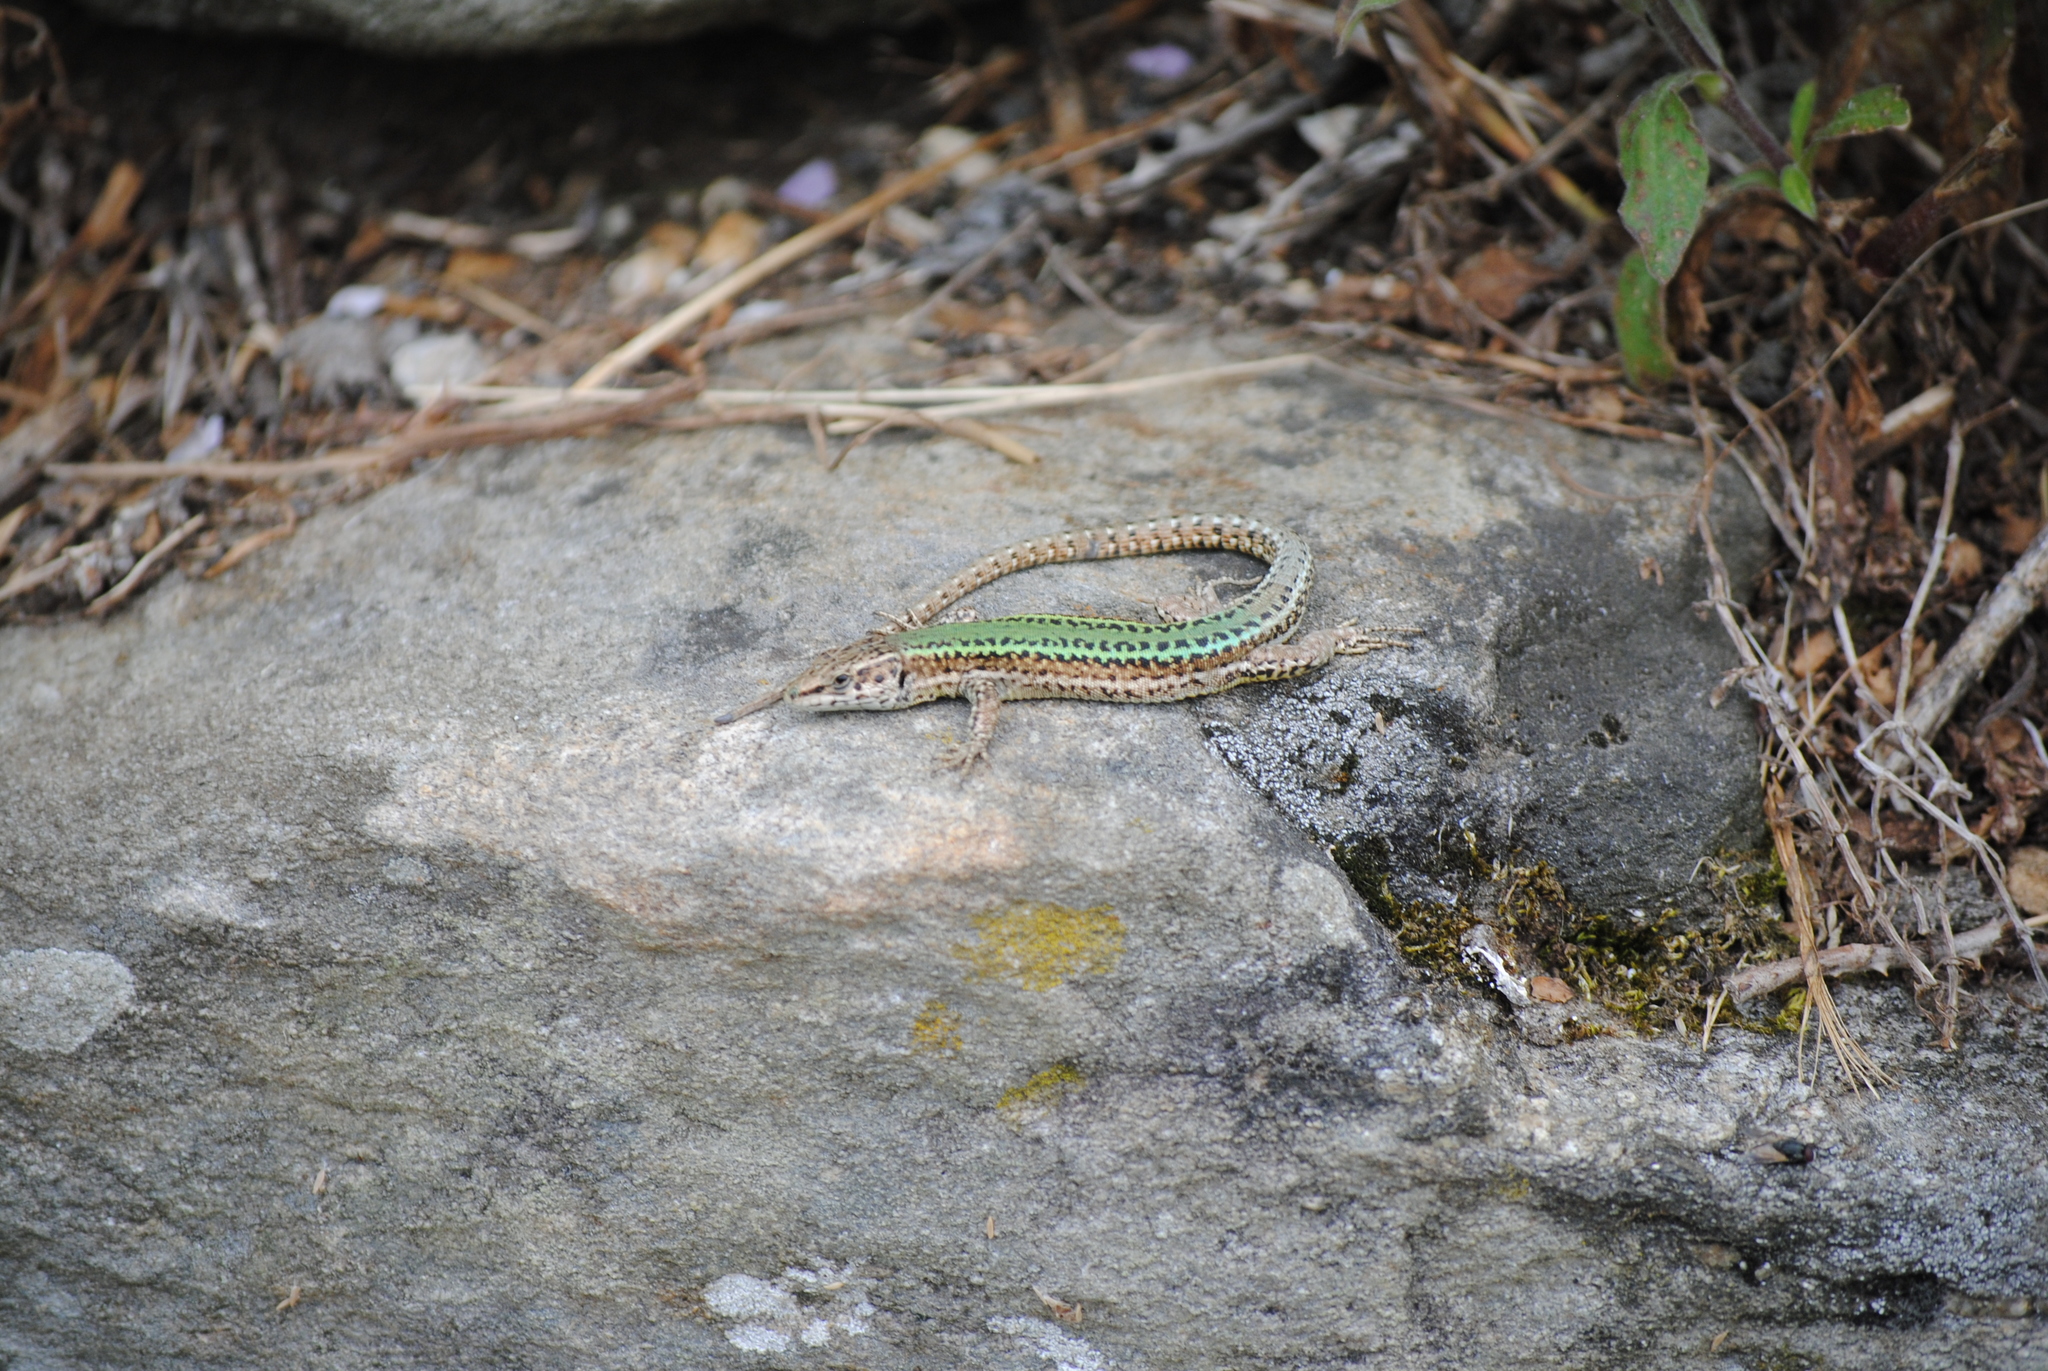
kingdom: Animalia
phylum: Chordata
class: Squamata
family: Lacertidae
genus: Podarcis
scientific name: Podarcis bocagei
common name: Bocage's wall lizard
